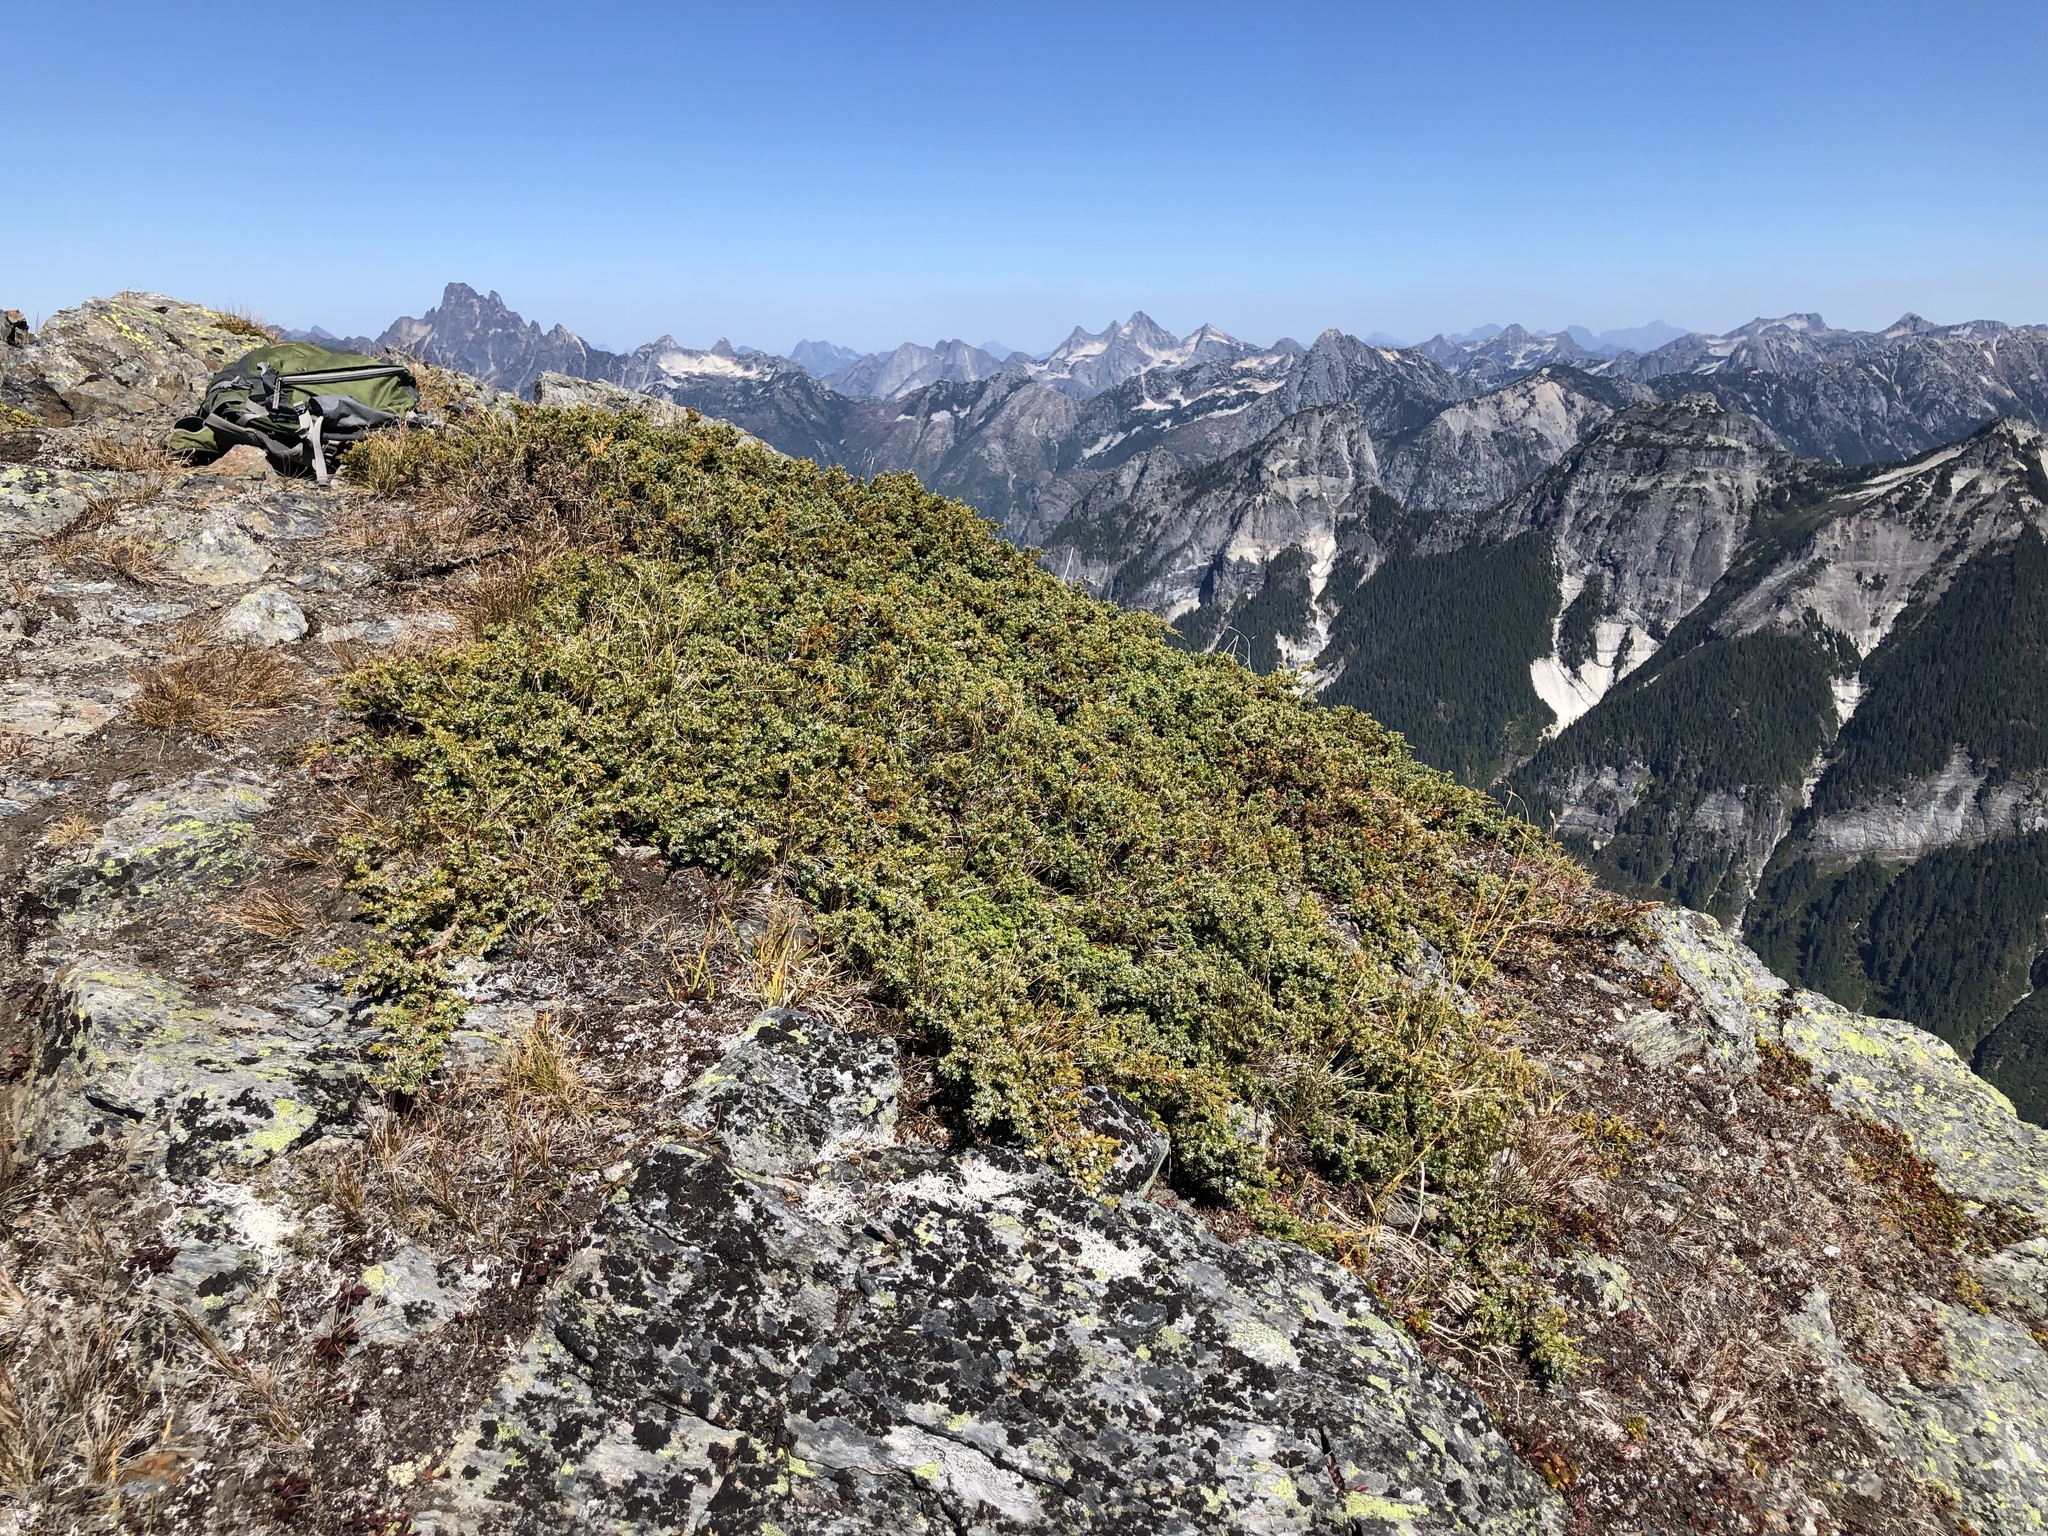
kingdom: Plantae
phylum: Tracheophyta
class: Pinopsida
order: Pinales
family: Cupressaceae
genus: Juniperus
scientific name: Juniperus communis
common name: Common juniper
